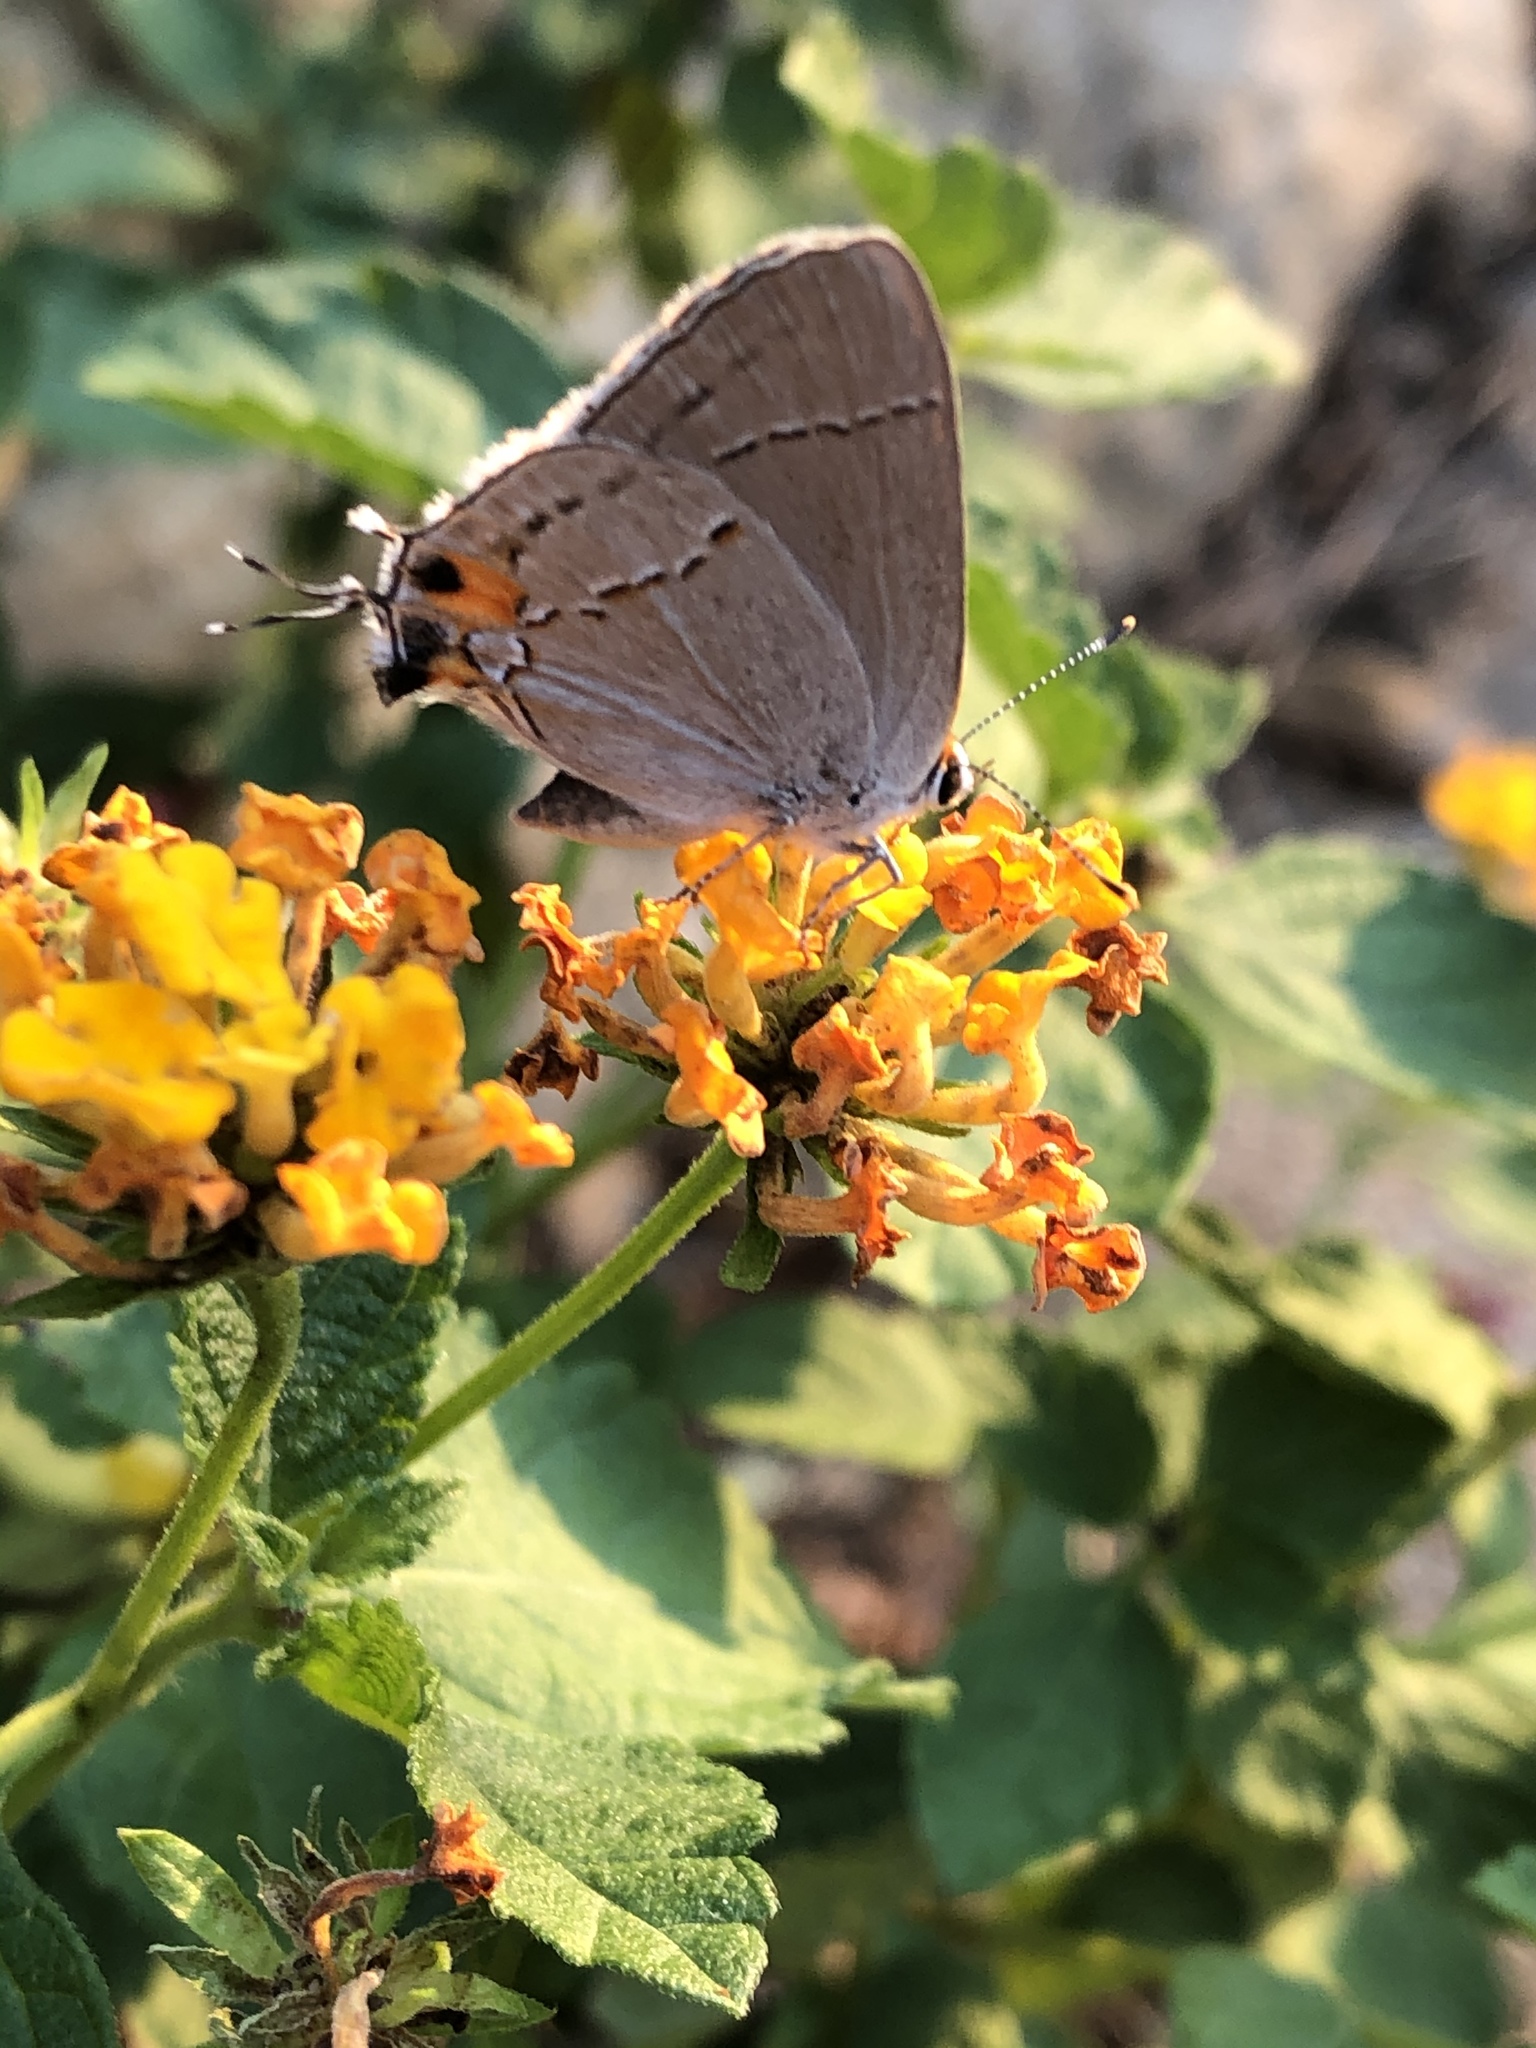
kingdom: Animalia
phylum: Arthropoda
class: Insecta
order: Lepidoptera
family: Lycaenidae
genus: Strymon
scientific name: Strymon melinus
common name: Gray hairstreak
